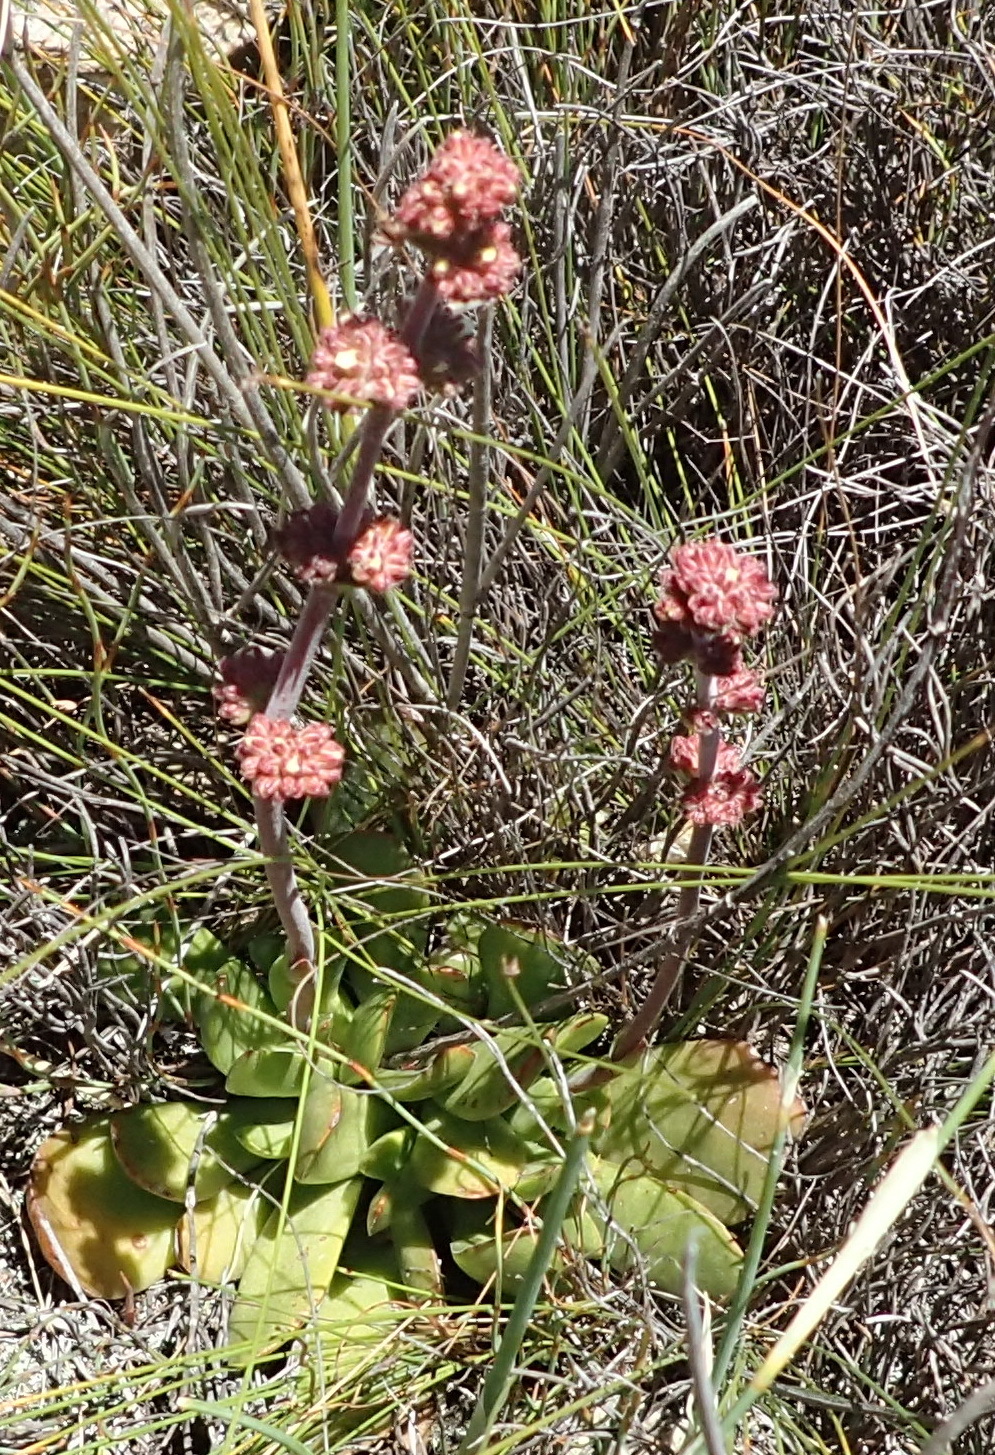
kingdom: Plantae
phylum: Tracheophyta
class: Magnoliopsida
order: Saxifragales
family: Crassulaceae
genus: Crassula
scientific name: Crassula nudicaulis
